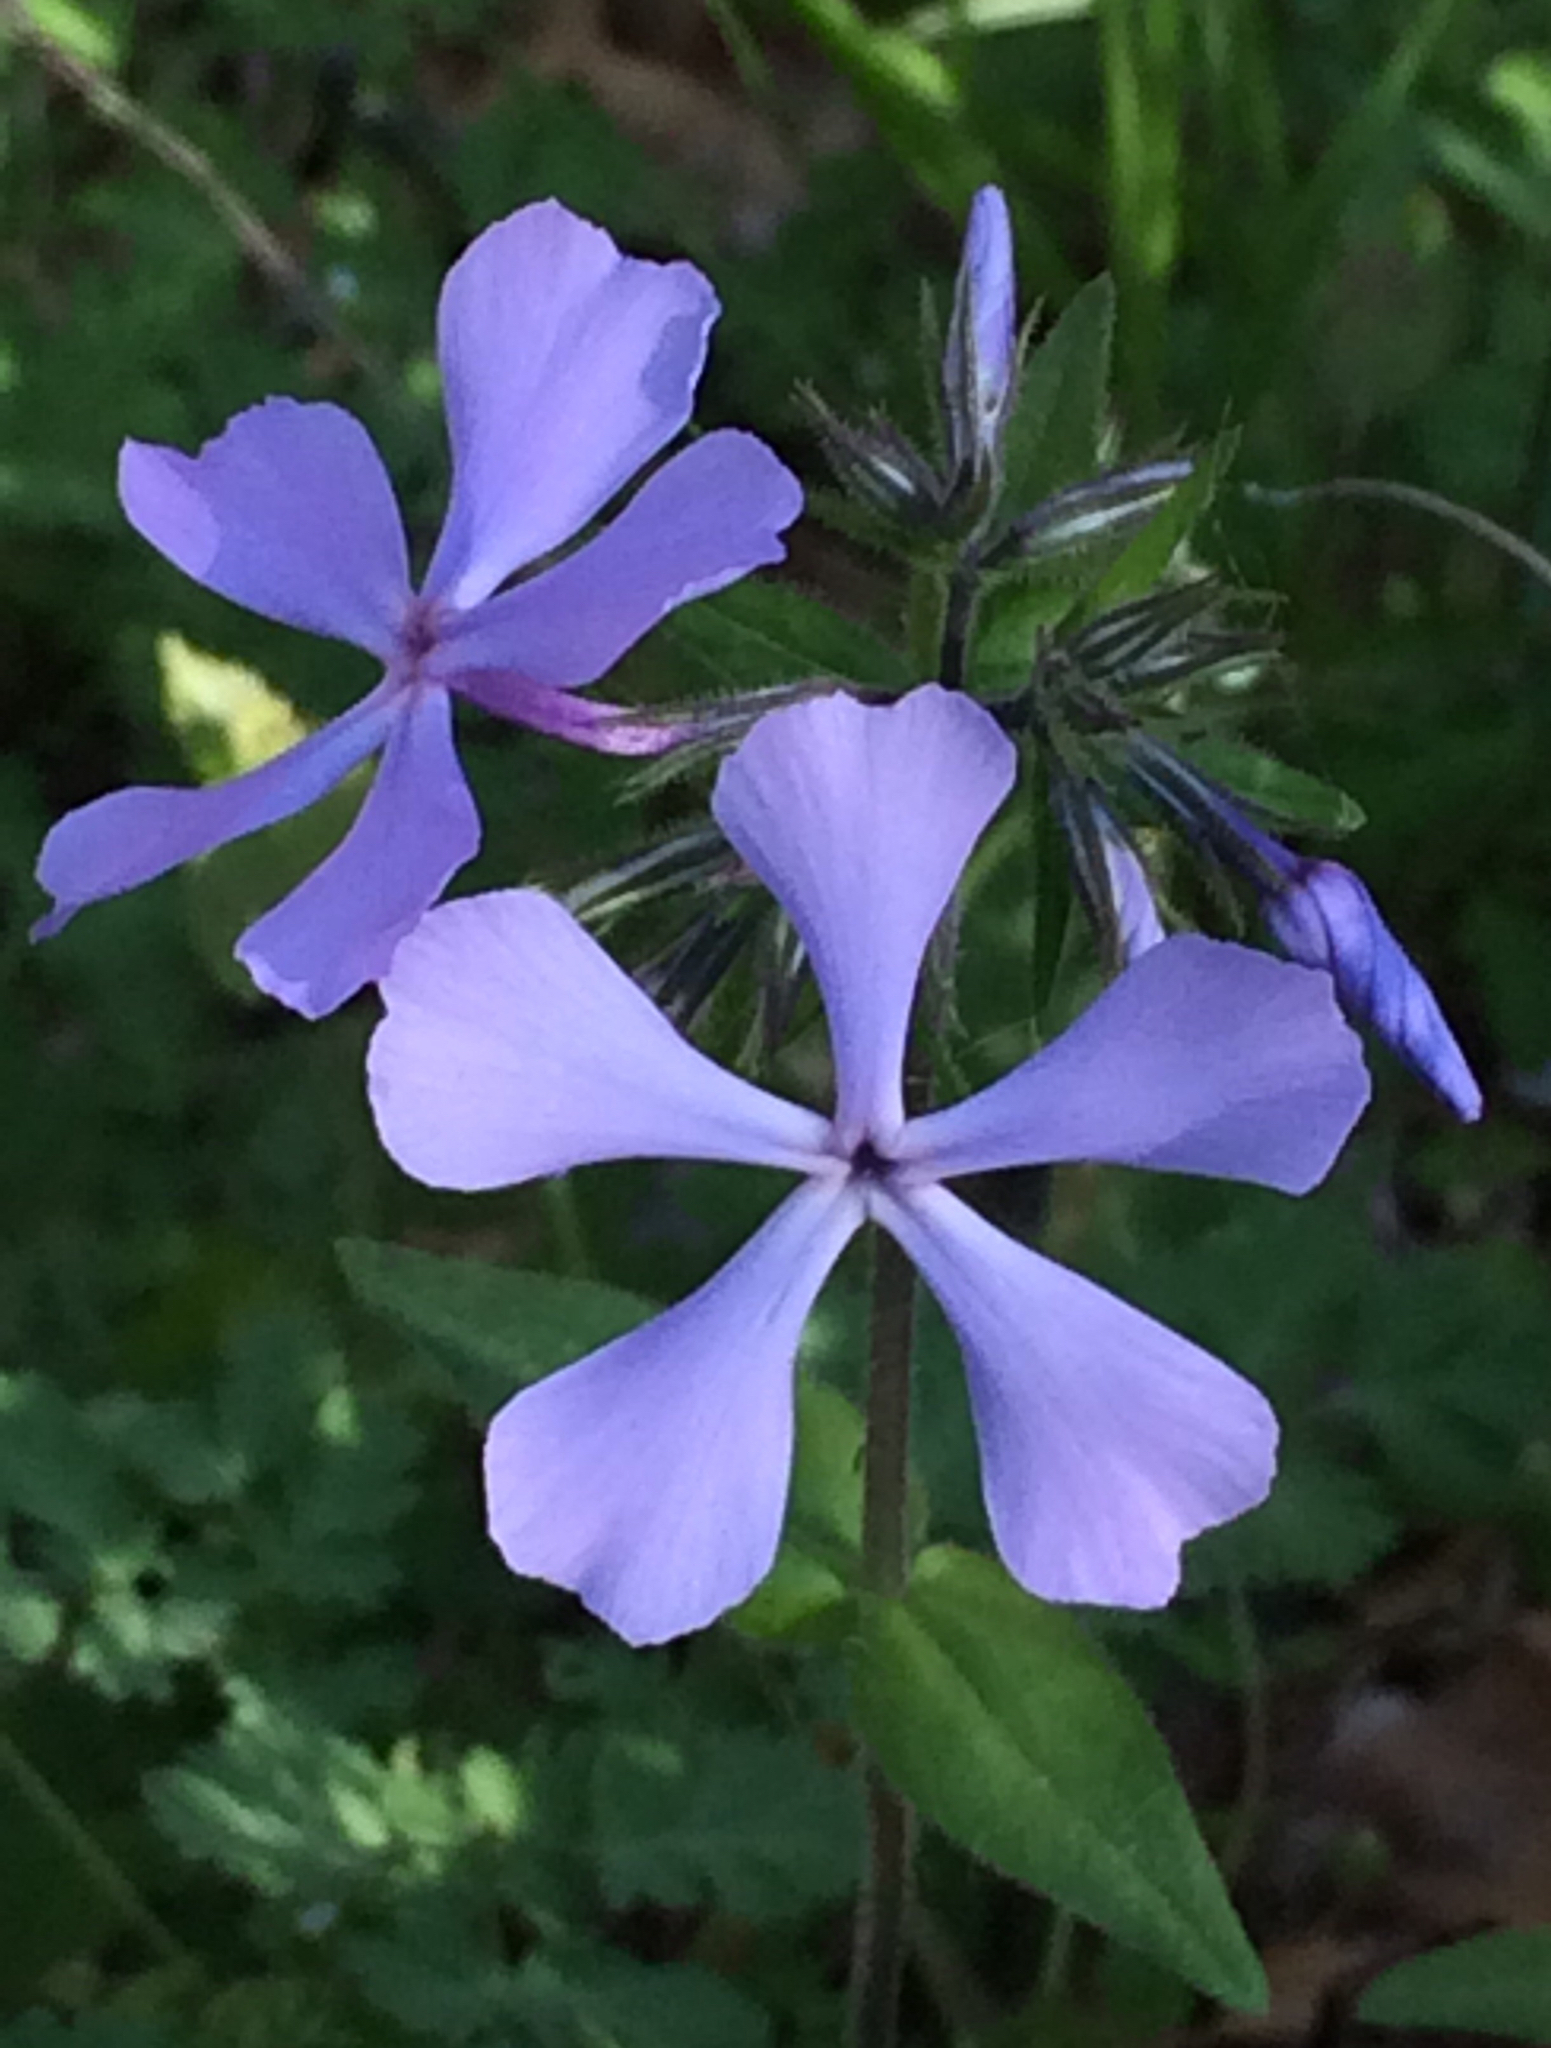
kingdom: Plantae
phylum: Tracheophyta
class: Magnoliopsida
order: Ericales
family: Polemoniaceae
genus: Phlox
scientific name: Phlox divaricata
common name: Blue phlox
